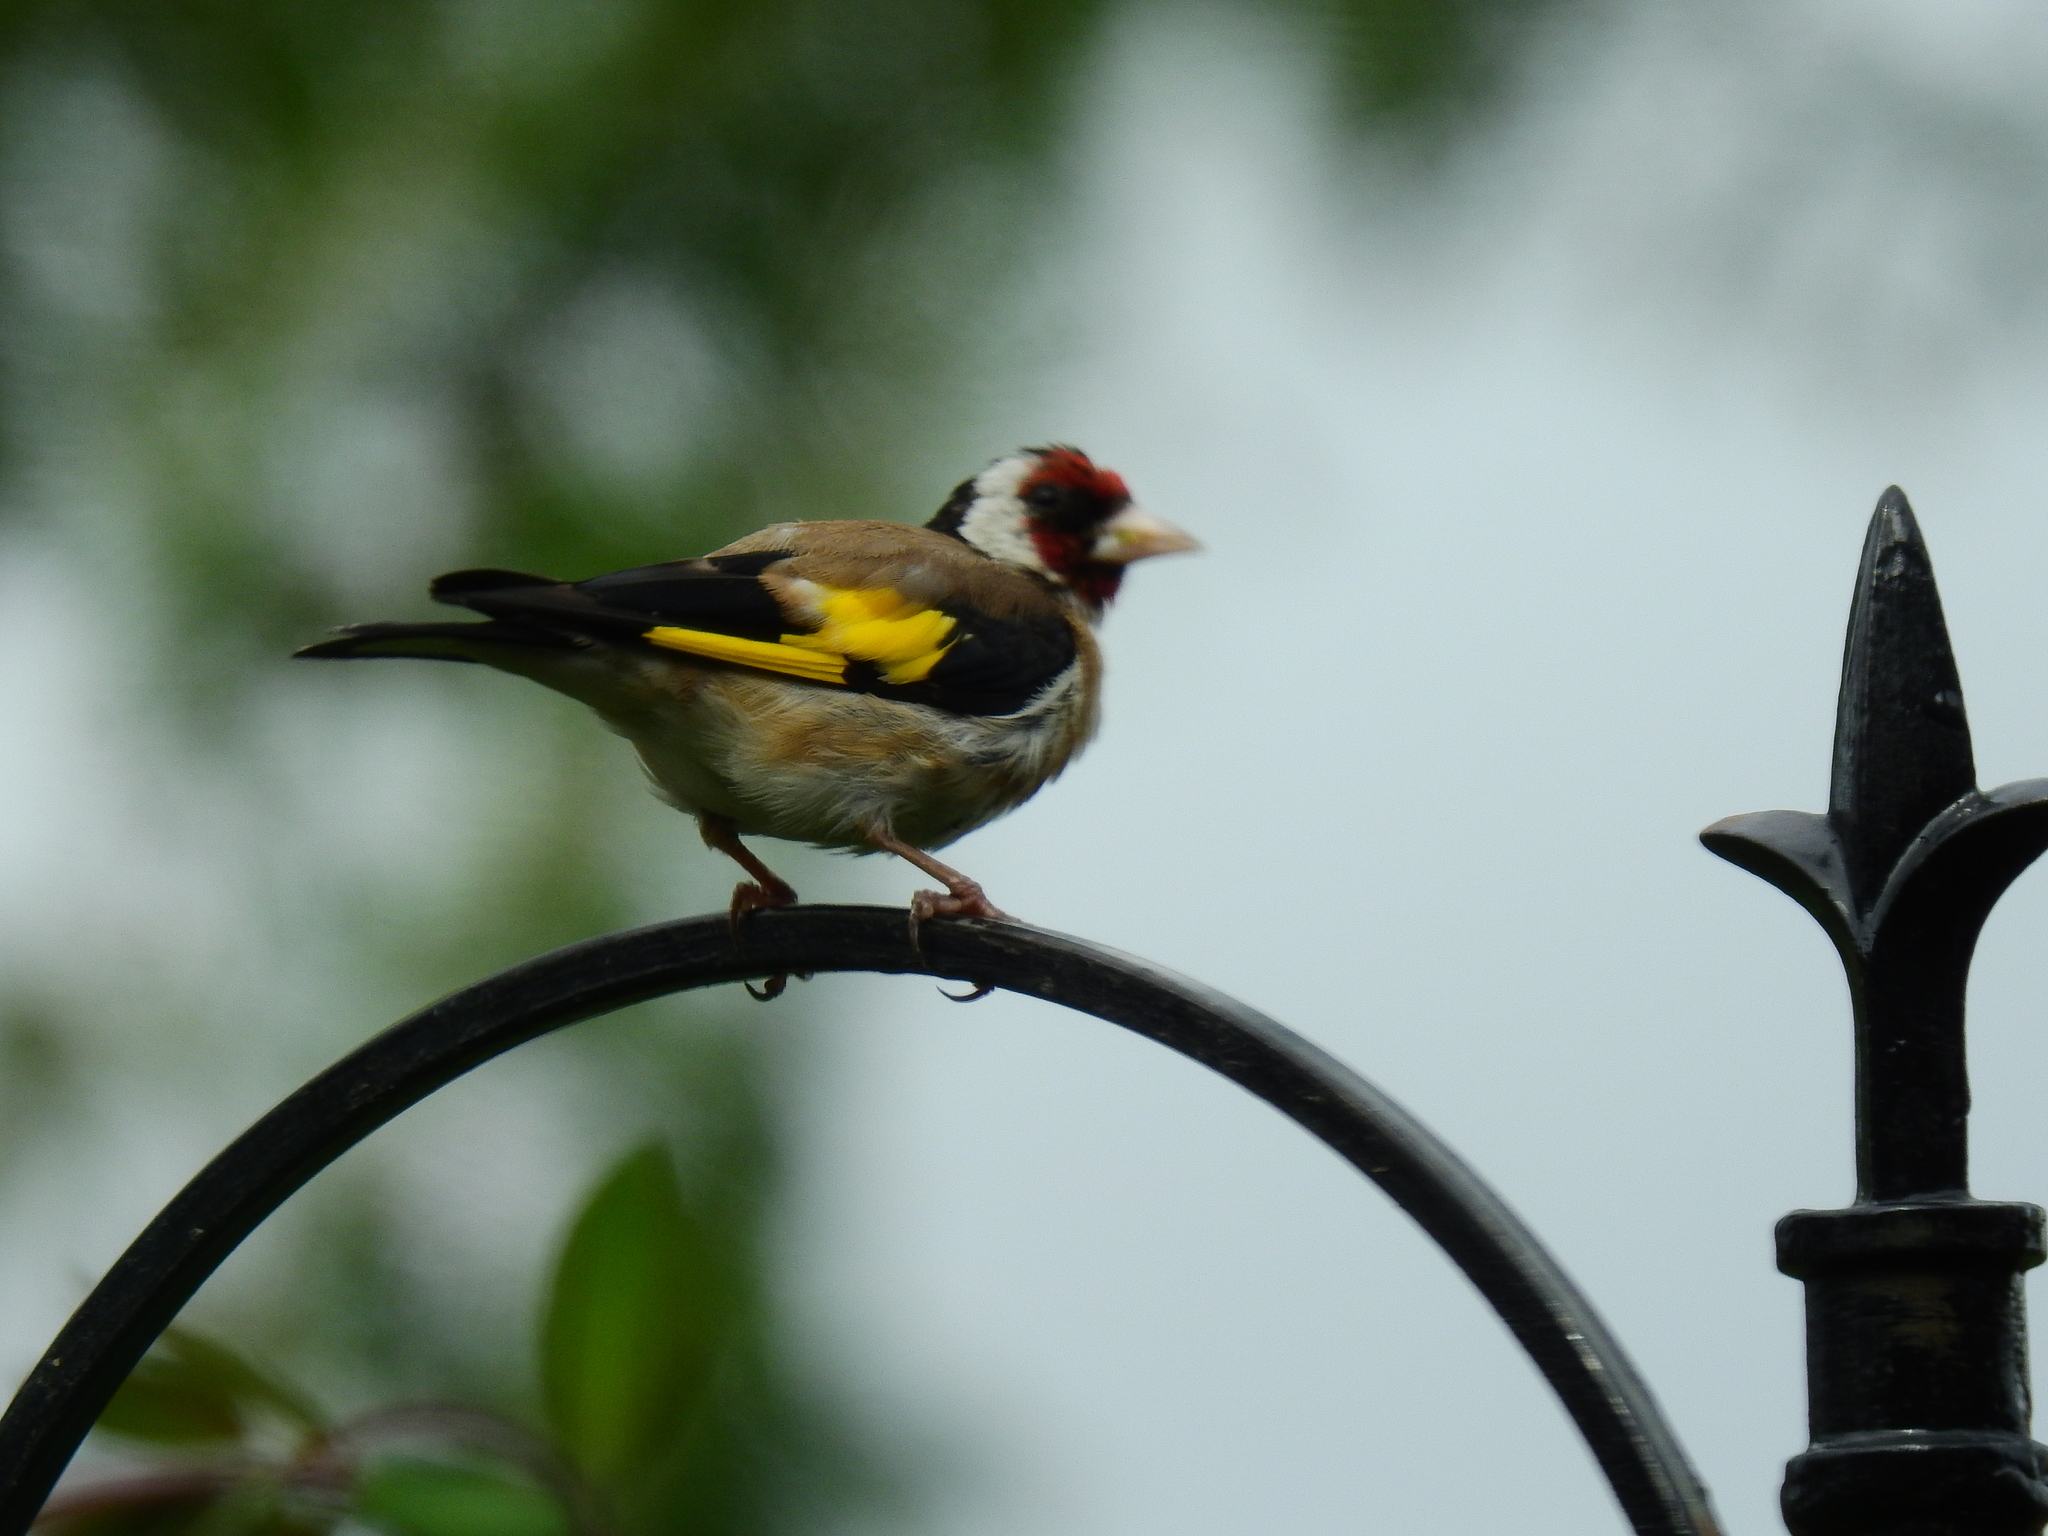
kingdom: Animalia
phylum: Chordata
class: Aves
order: Passeriformes
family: Fringillidae
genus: Carduelis
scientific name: Carduelis carduelis
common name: European goldfinch
